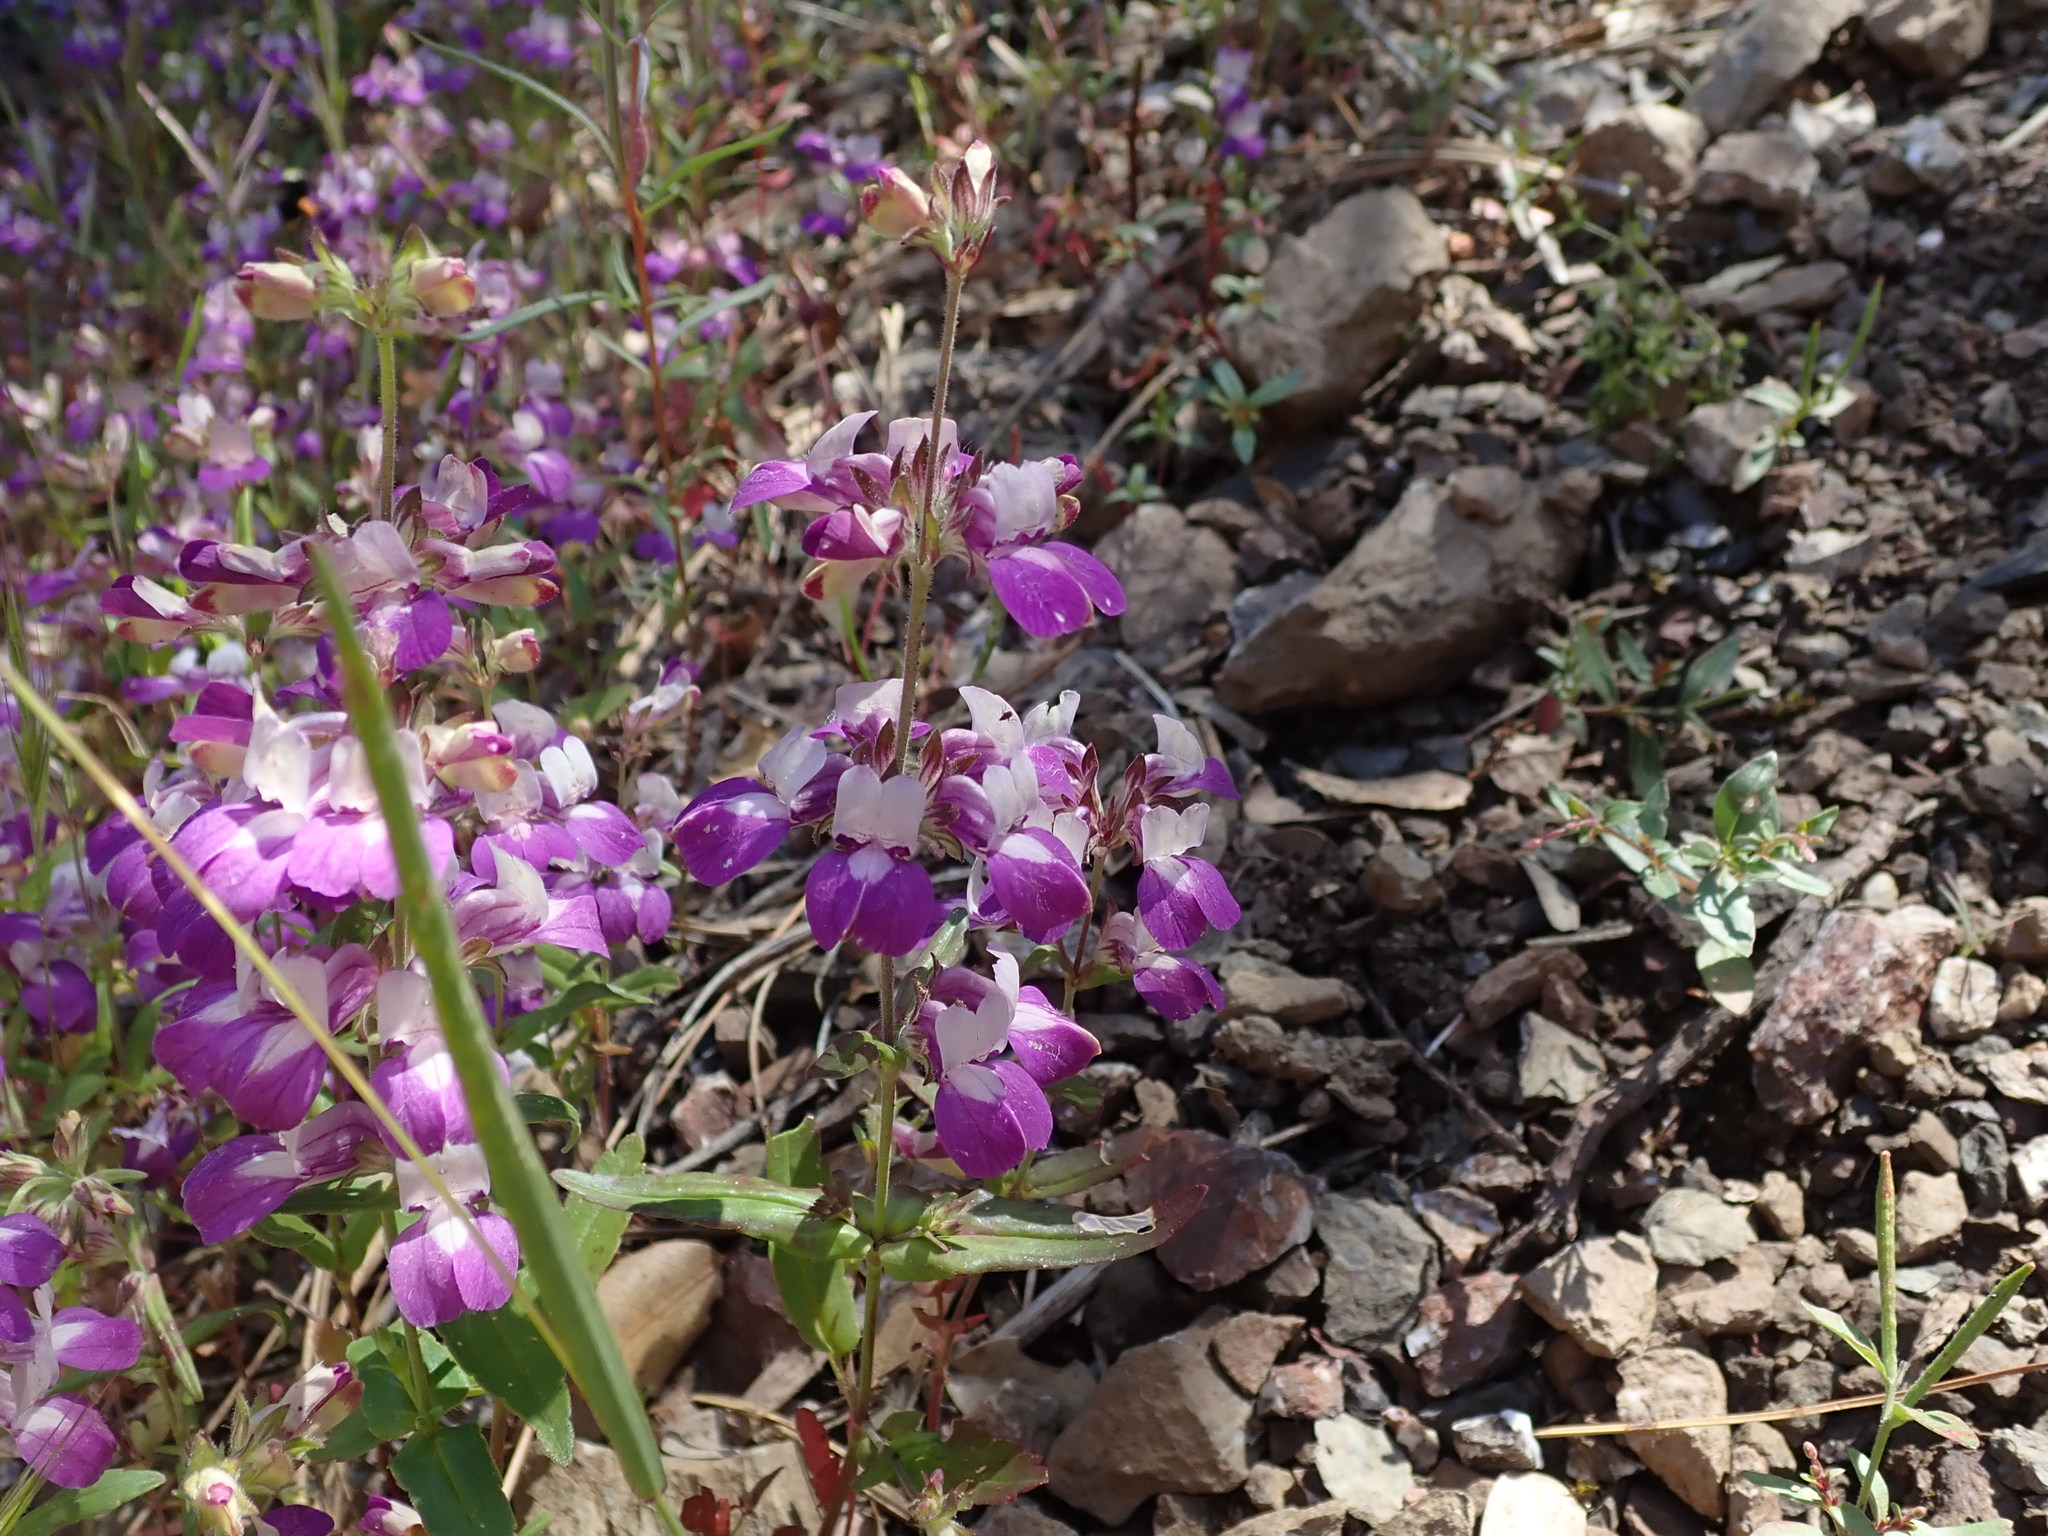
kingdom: Plantae
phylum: Tracheophyta
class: Magnoliopsida
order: Lamiales
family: Plantaginaceae
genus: Collinsia
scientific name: Collinsia heterophylla
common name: Chinese-houses
